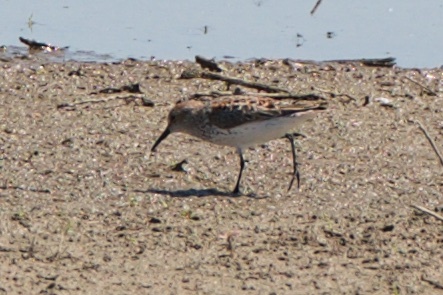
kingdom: Animalia
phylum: Chordata
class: Aves
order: Charadriiformes
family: Scolopacidae
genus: Calidris
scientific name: Calidris mauri
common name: Western sandpiper
